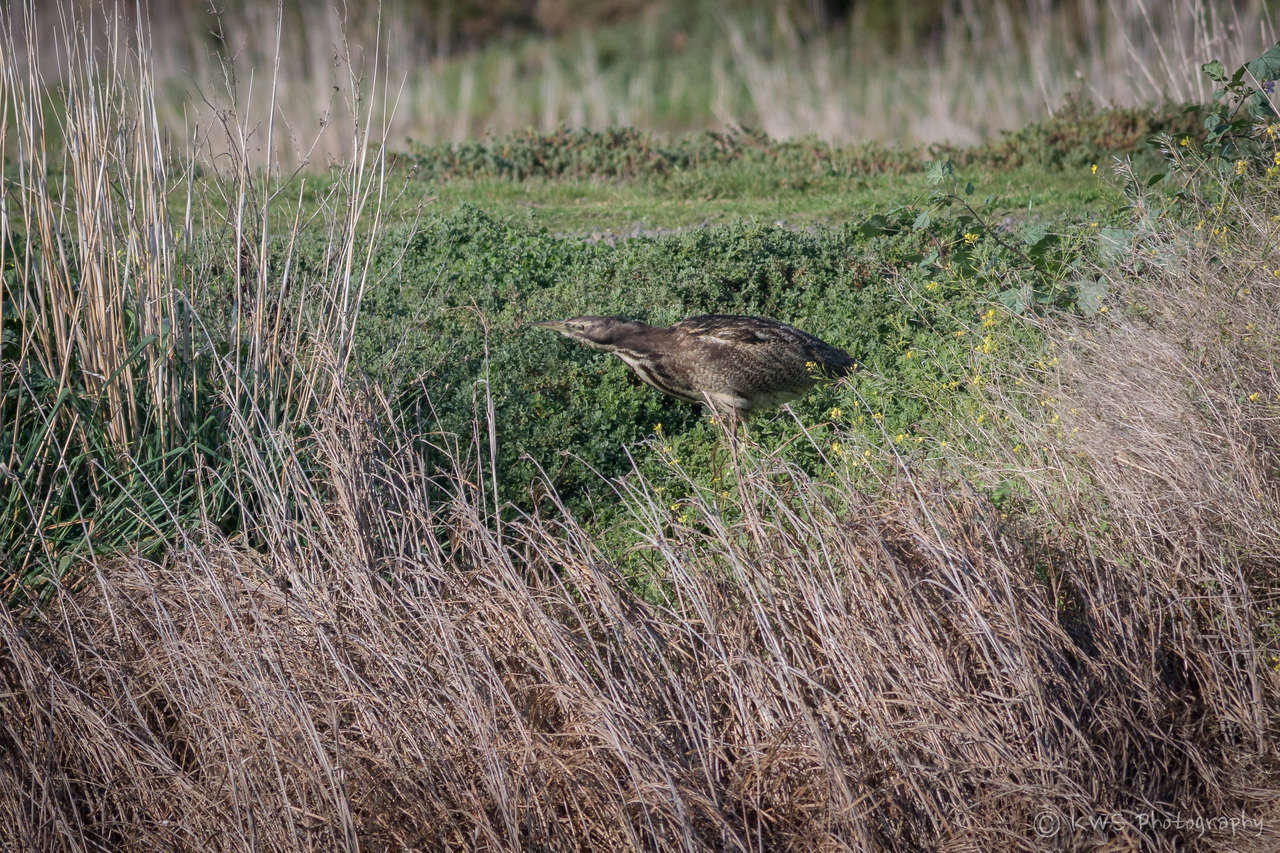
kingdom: Animalia
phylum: Chordata
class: Aves
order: Pelecaniformes
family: Ardeidae
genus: Botaurus
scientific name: Botaurus poiciloptilus
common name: Australasian bittern
